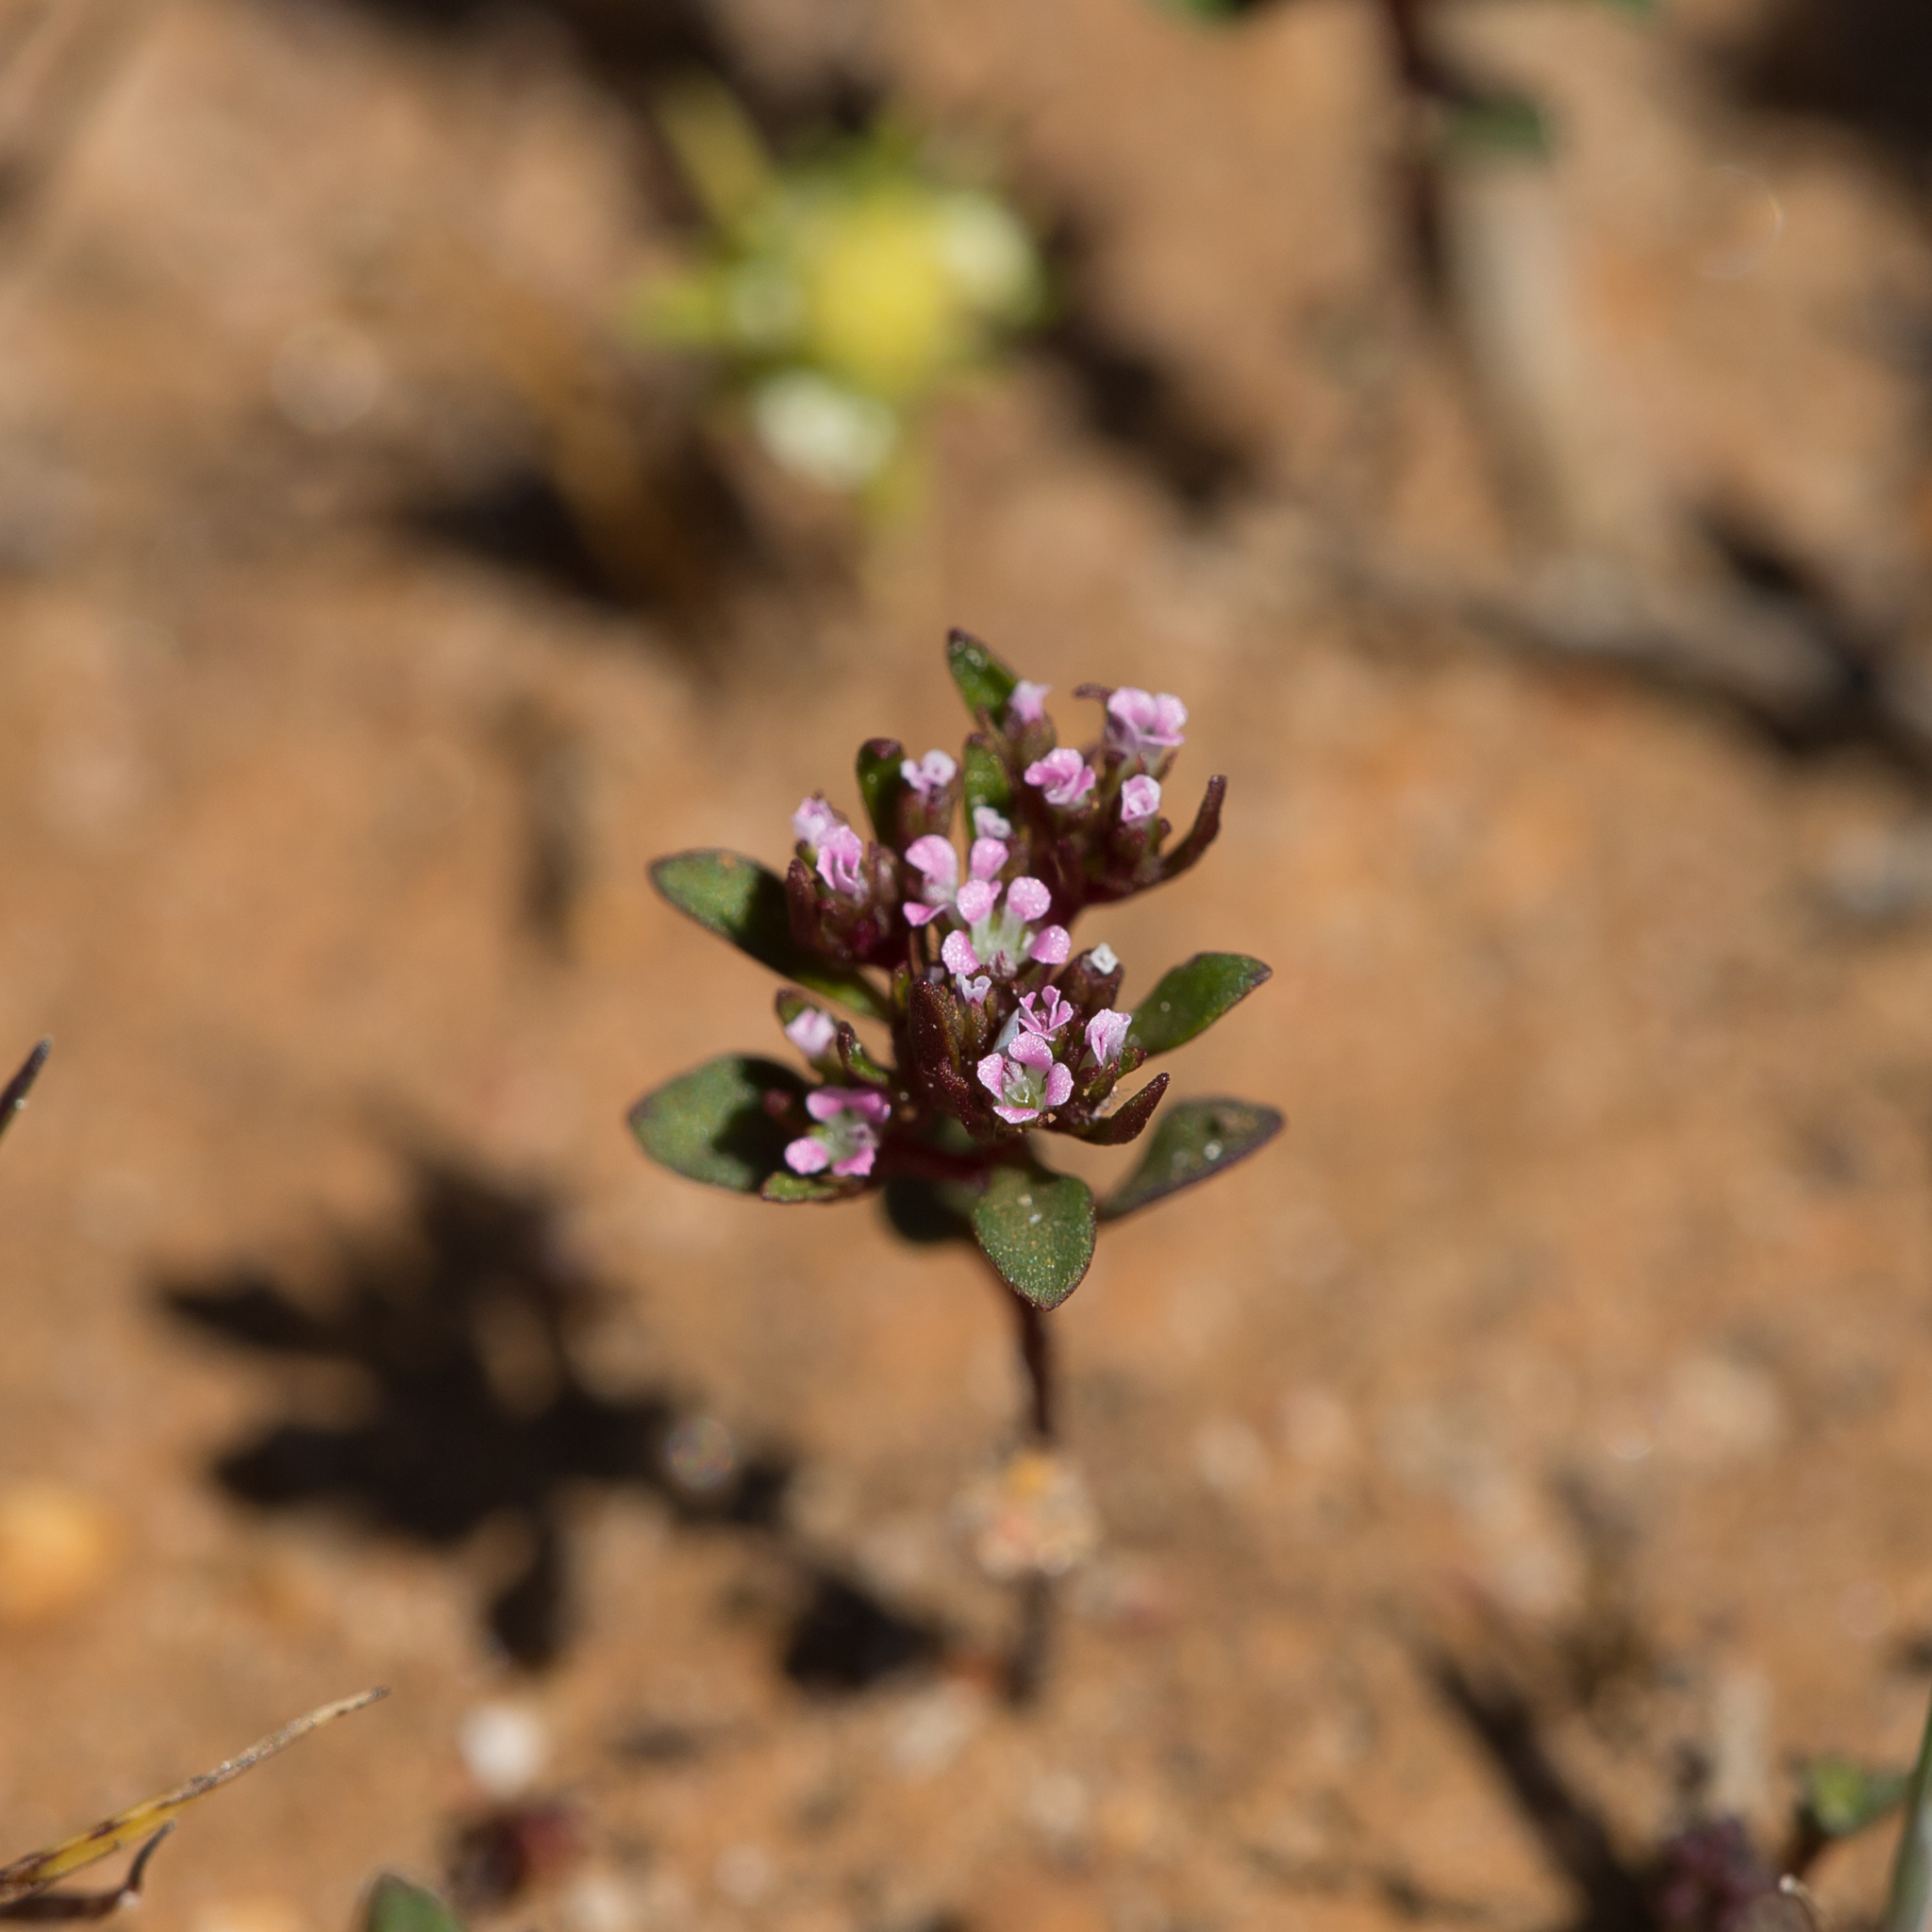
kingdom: Plantae
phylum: Tracheophyta
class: Magnoliopsida
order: Asterales
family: Stylidiaceae
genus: Levenhookia
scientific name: Levenhookia pusilla
